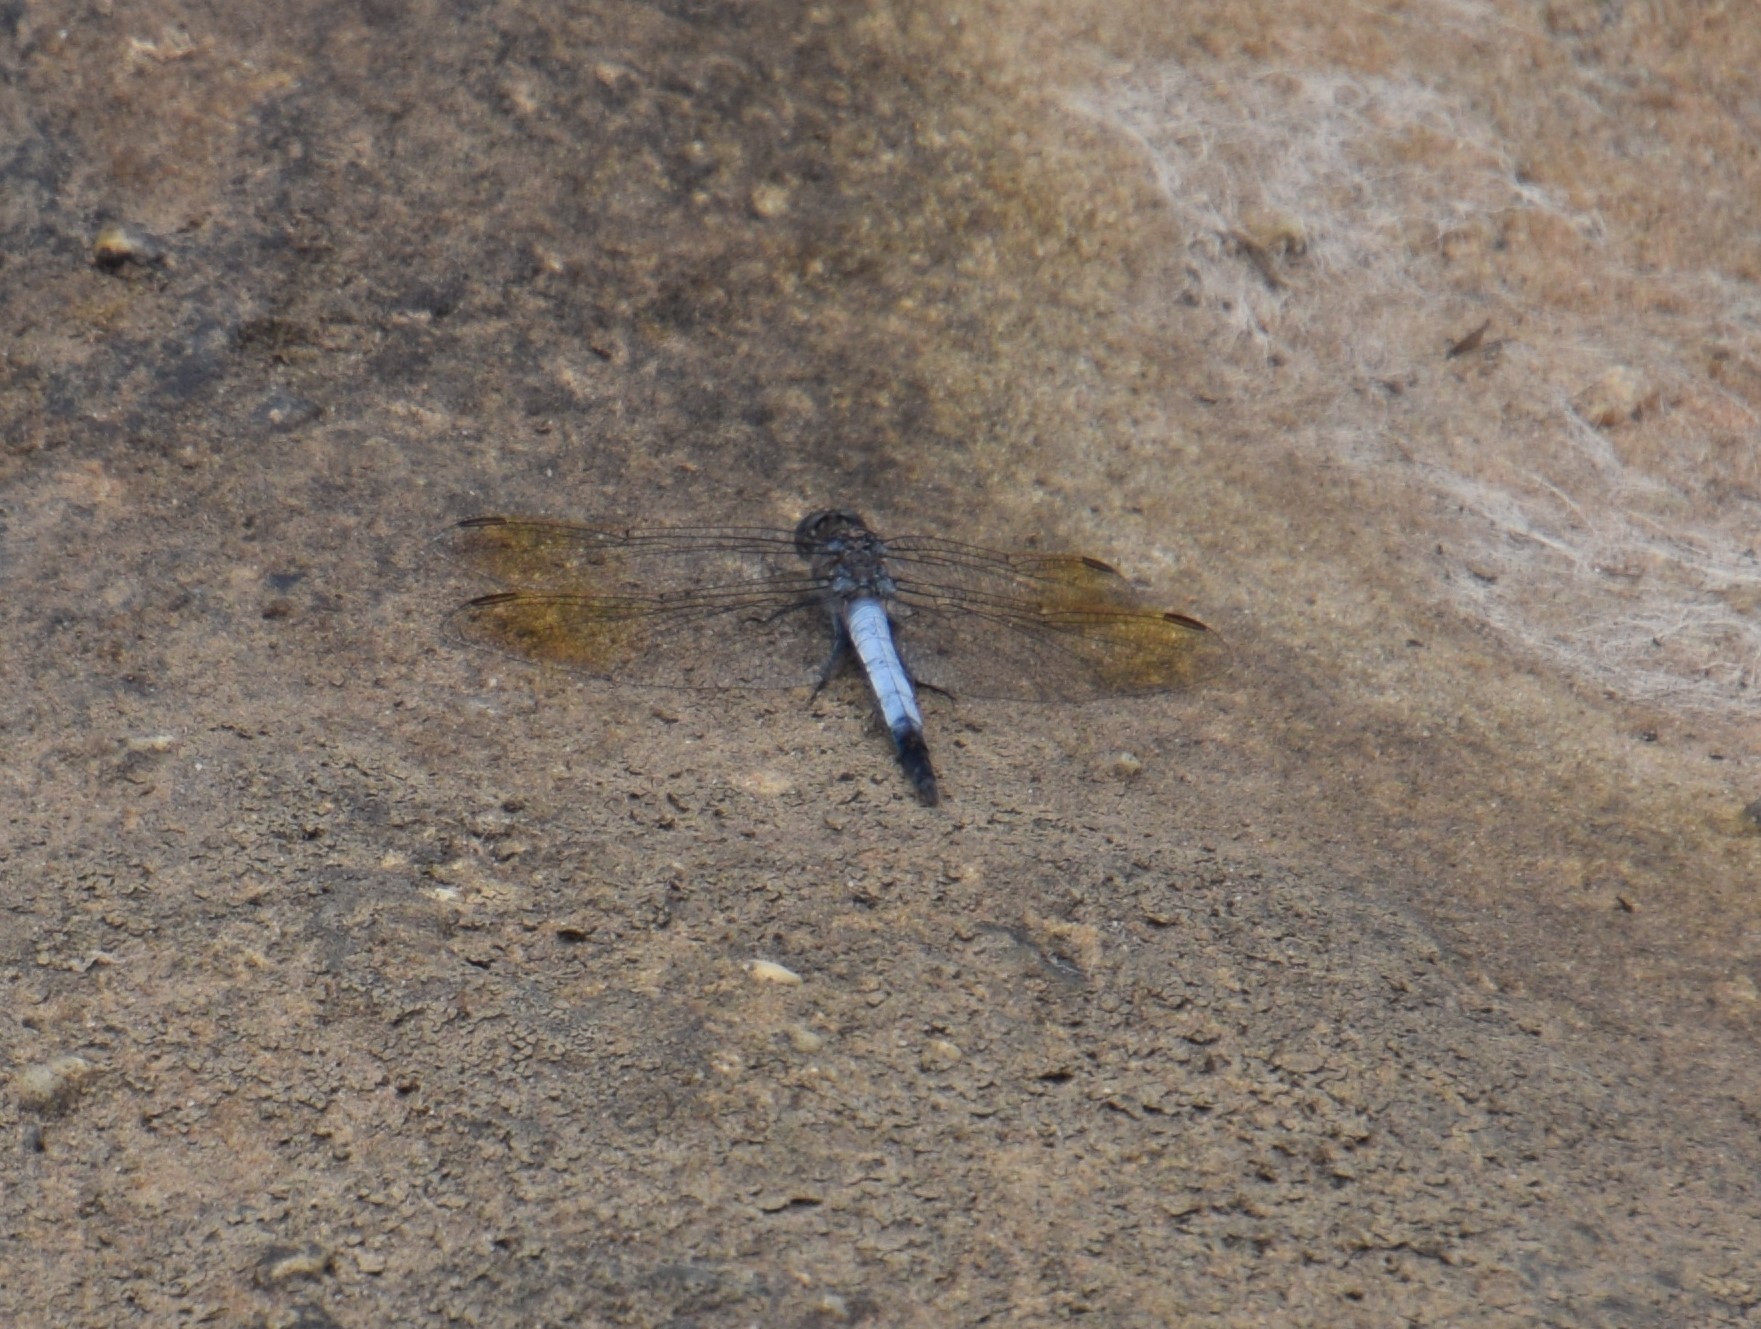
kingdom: Animalia
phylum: Arthropoda
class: Insecta
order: Odonata
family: Libellulidae
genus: Orthetrum
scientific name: Orthetrum caledonicum
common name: Blue skimmer
